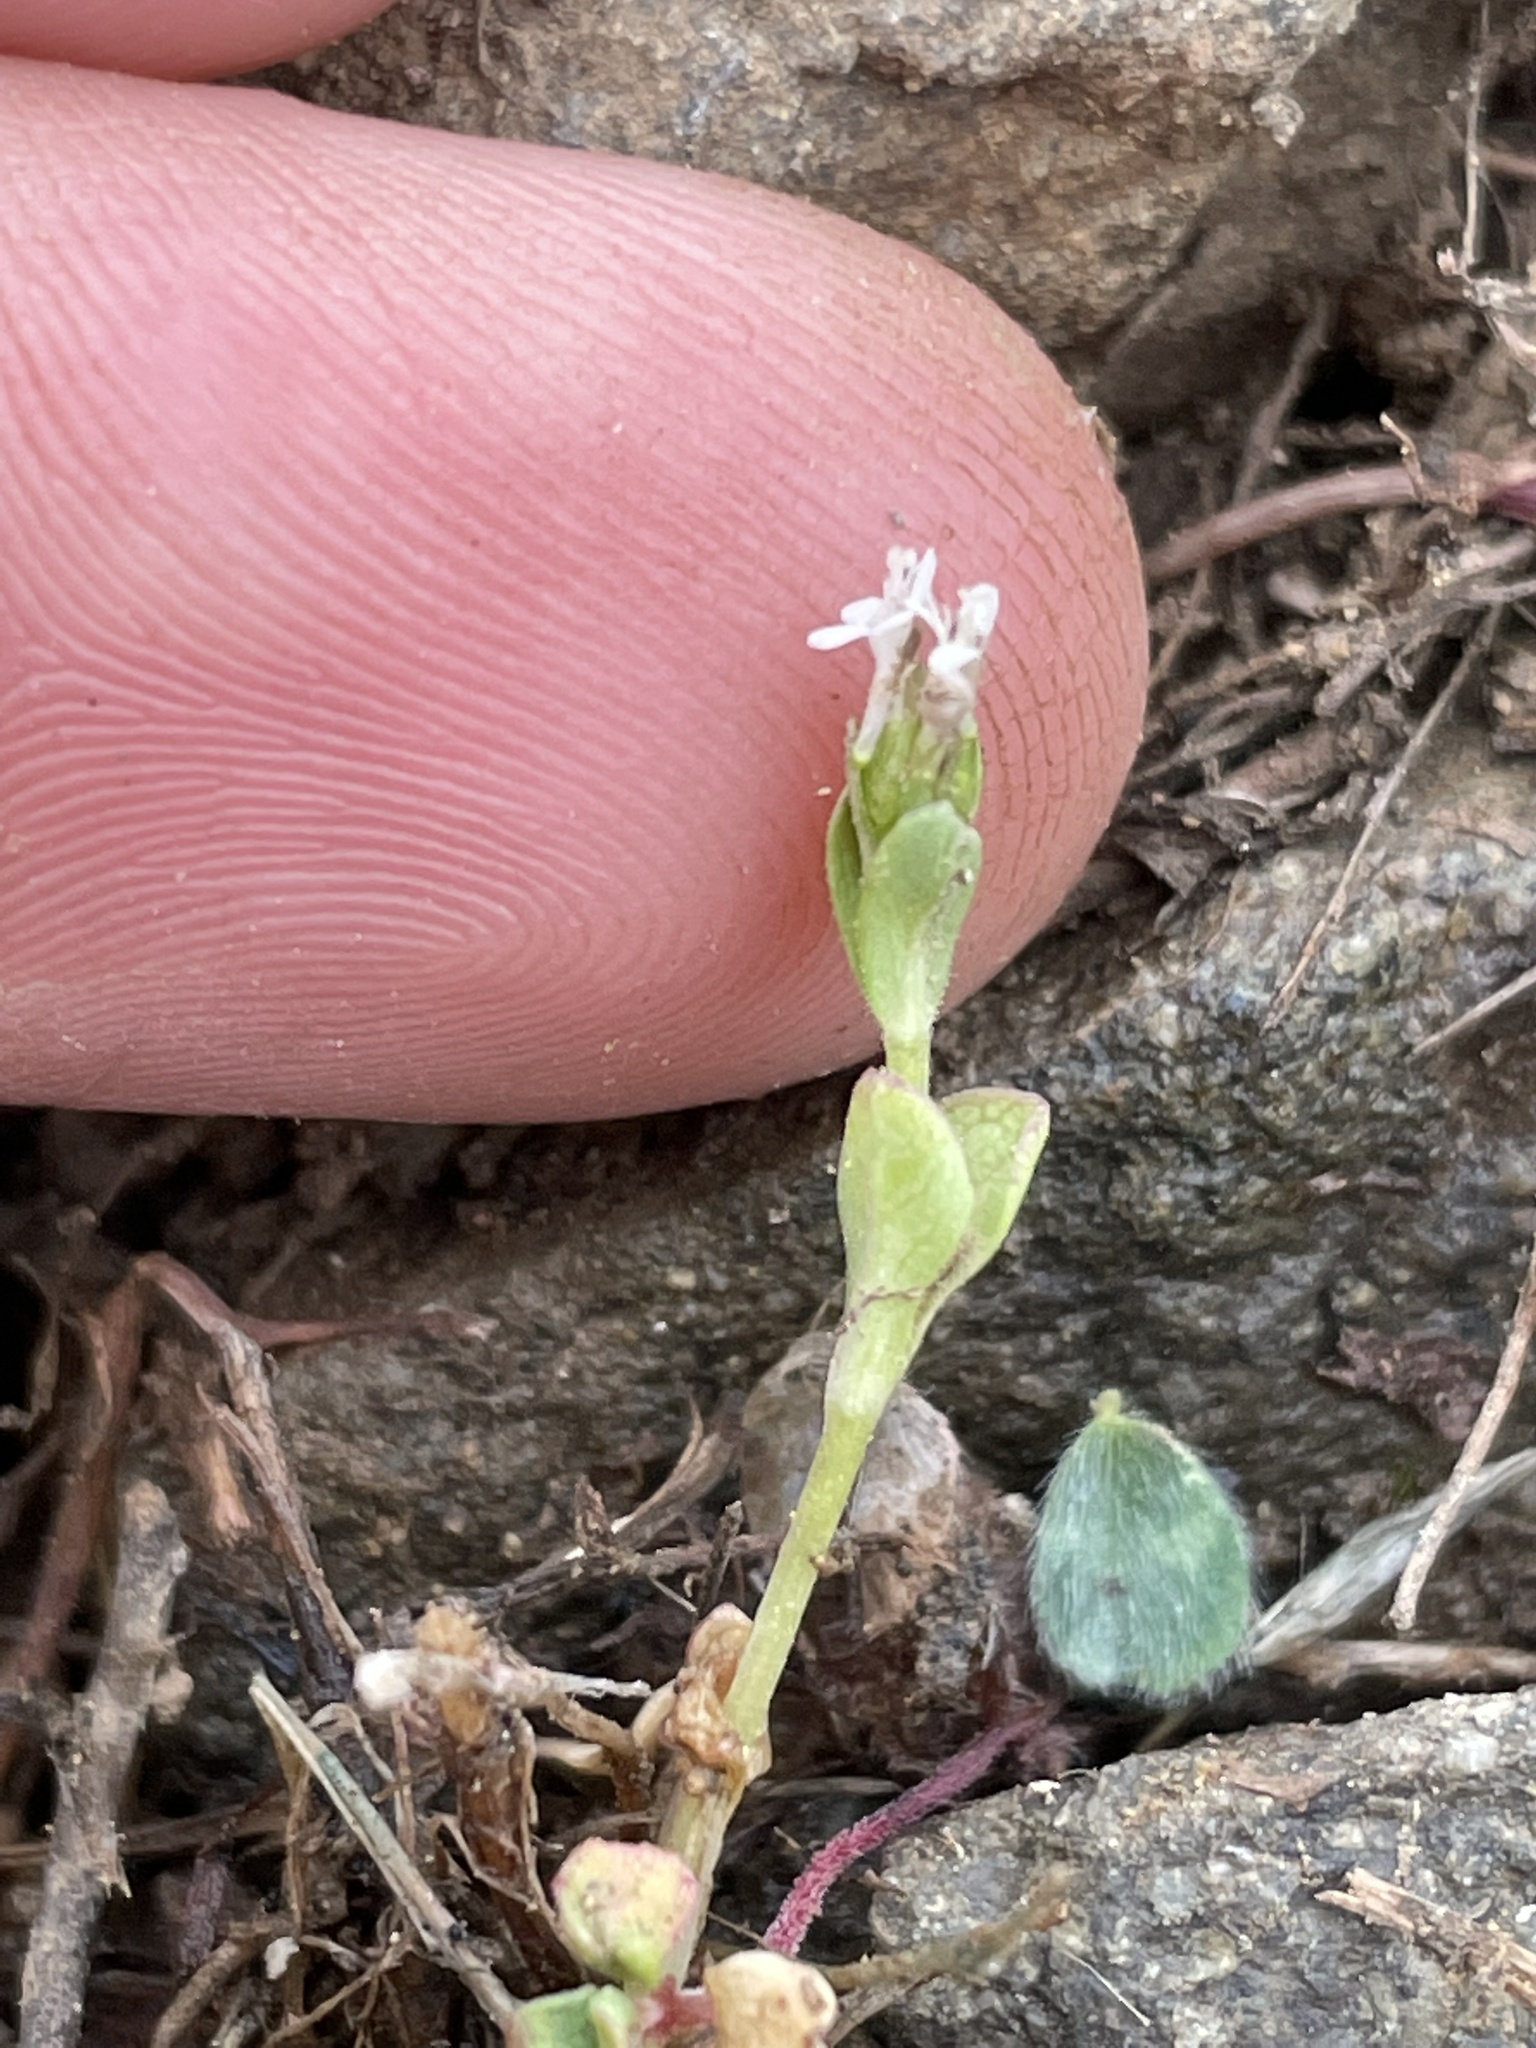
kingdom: Plantae
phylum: Tracheophyta
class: Magnoliopsida
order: Dipsacales
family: Caprifoliaceae
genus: Plectritis
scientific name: Plectritis macroptera
